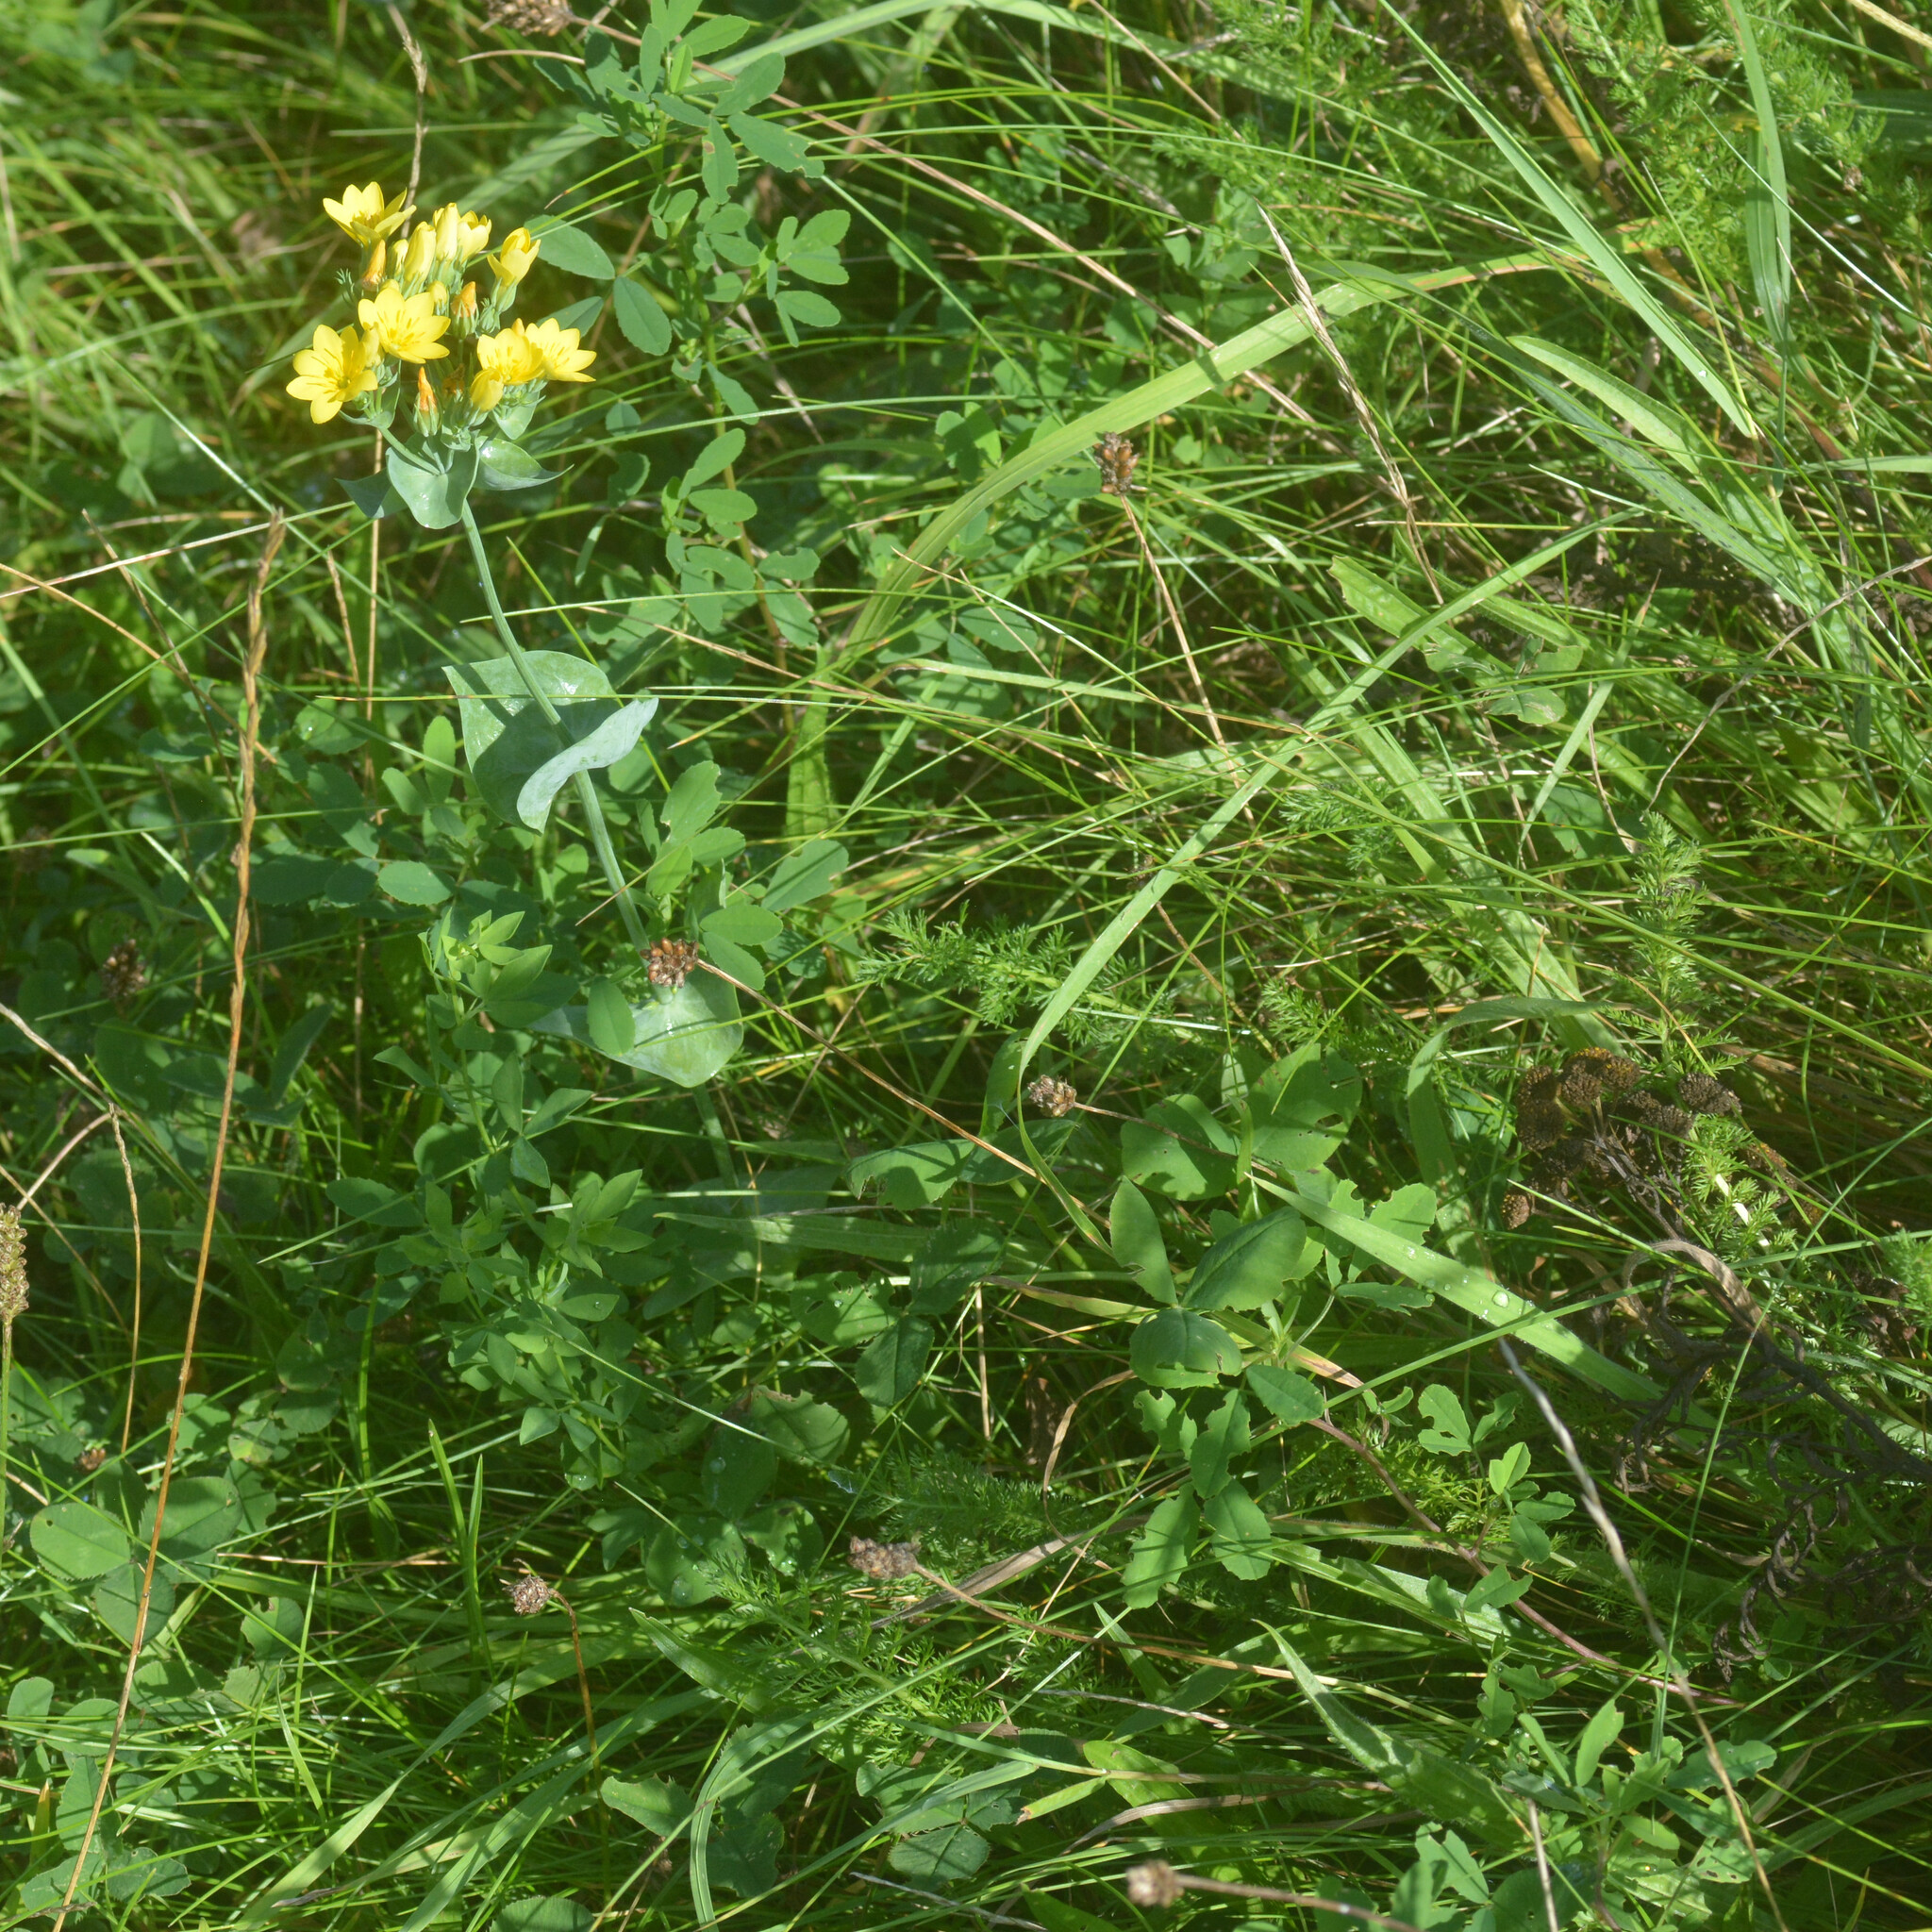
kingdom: Plantae
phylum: Tracheophyta
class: Magnoliopsida
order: Gentianales
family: Gentianaceae
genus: Blackstonia
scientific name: Blackstonia perfoliata
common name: Yellow-wort
